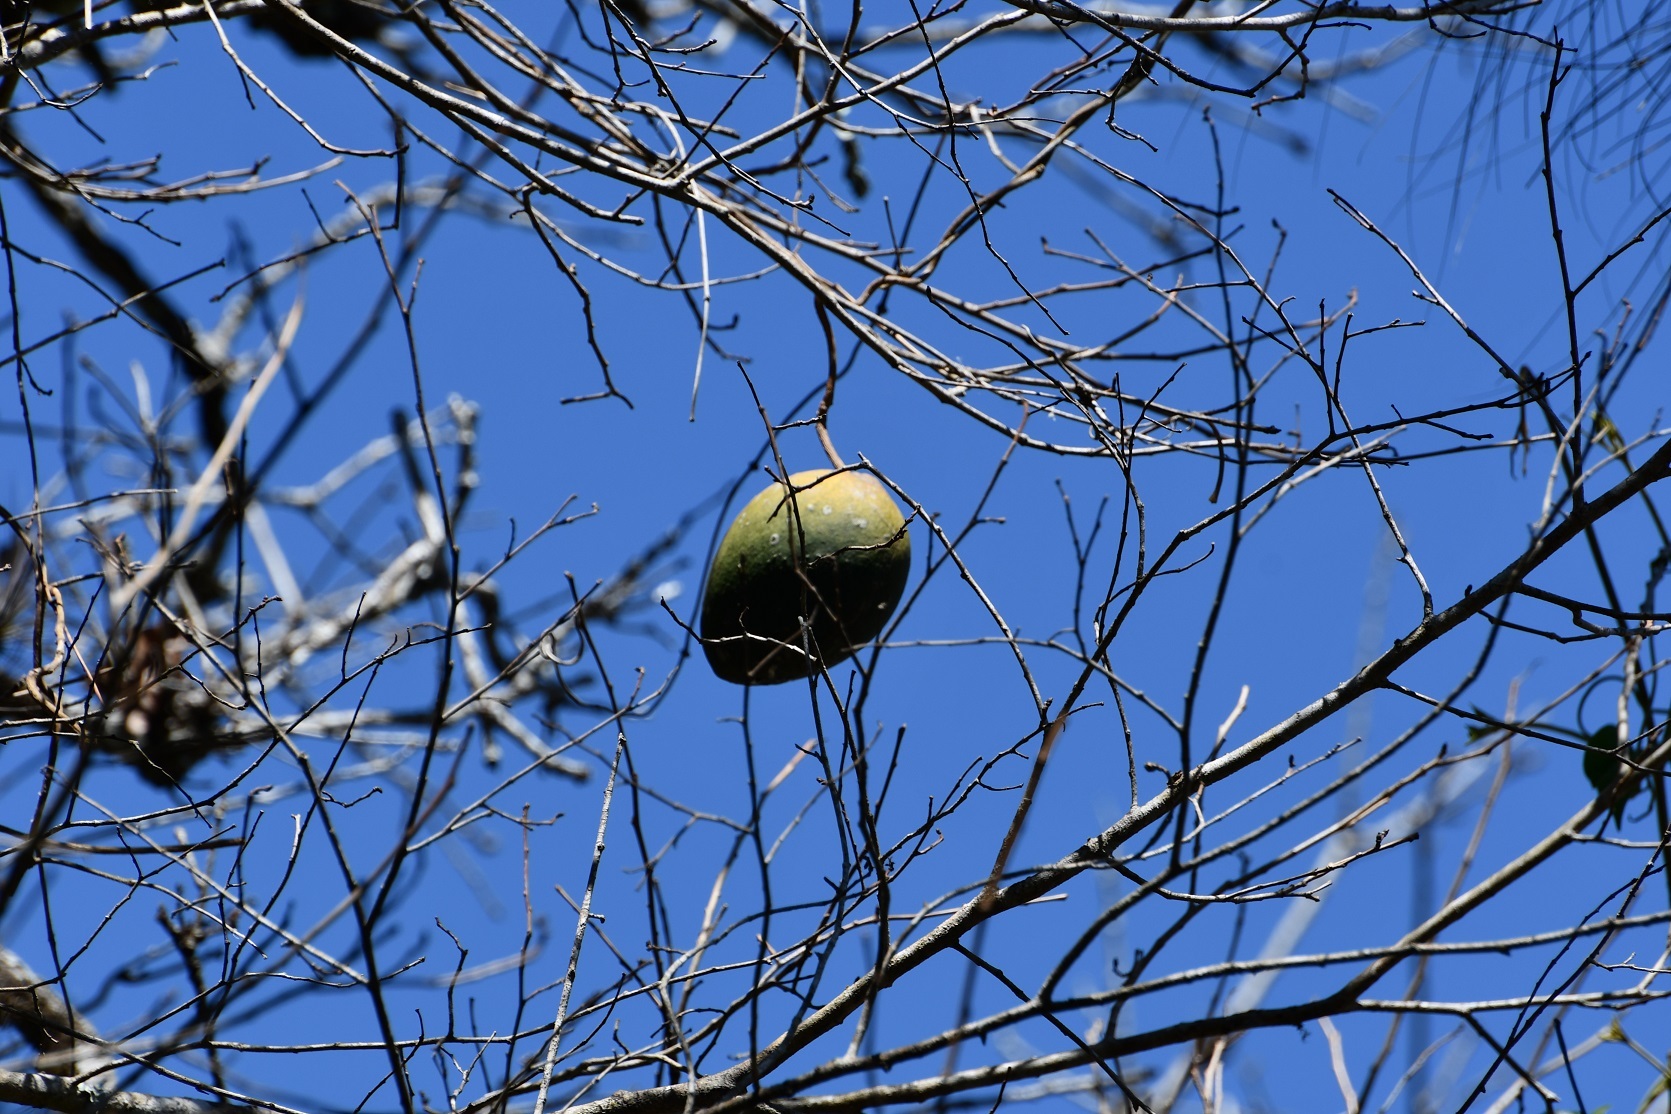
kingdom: Plantae
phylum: Tracheophyta
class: Magnoliopsida
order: Gentianales
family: Apocynaceae
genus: Ruehssia
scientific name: Ruehssia gualanensis
